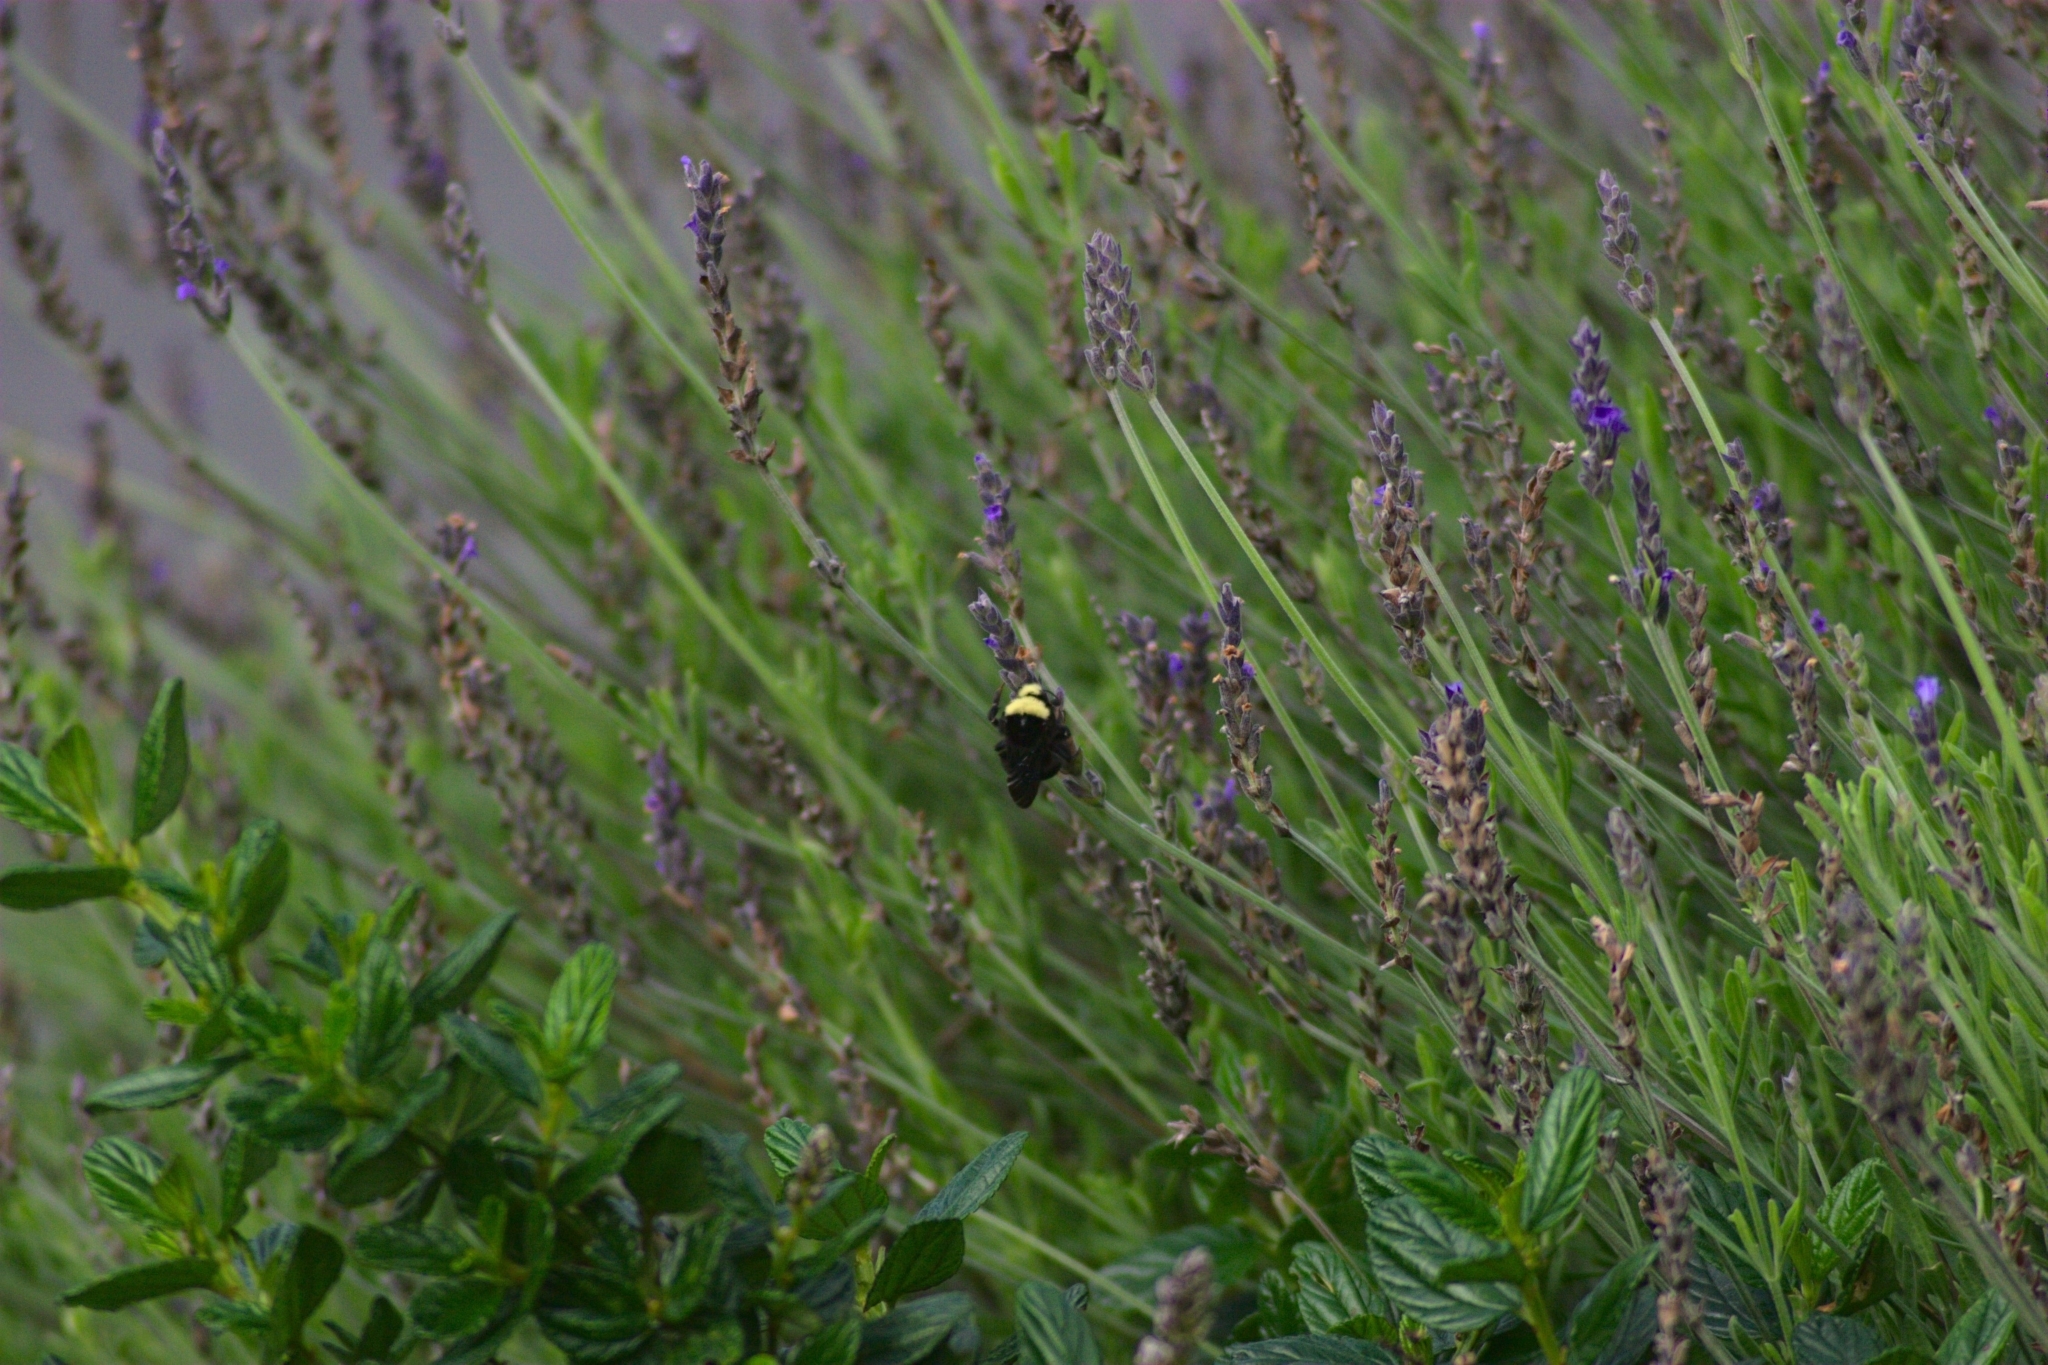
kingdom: Animalia
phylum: Arthropoda
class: Insecta
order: Hymenoptera
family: Apidae
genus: Pyrobombus
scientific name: Pyrobombus
